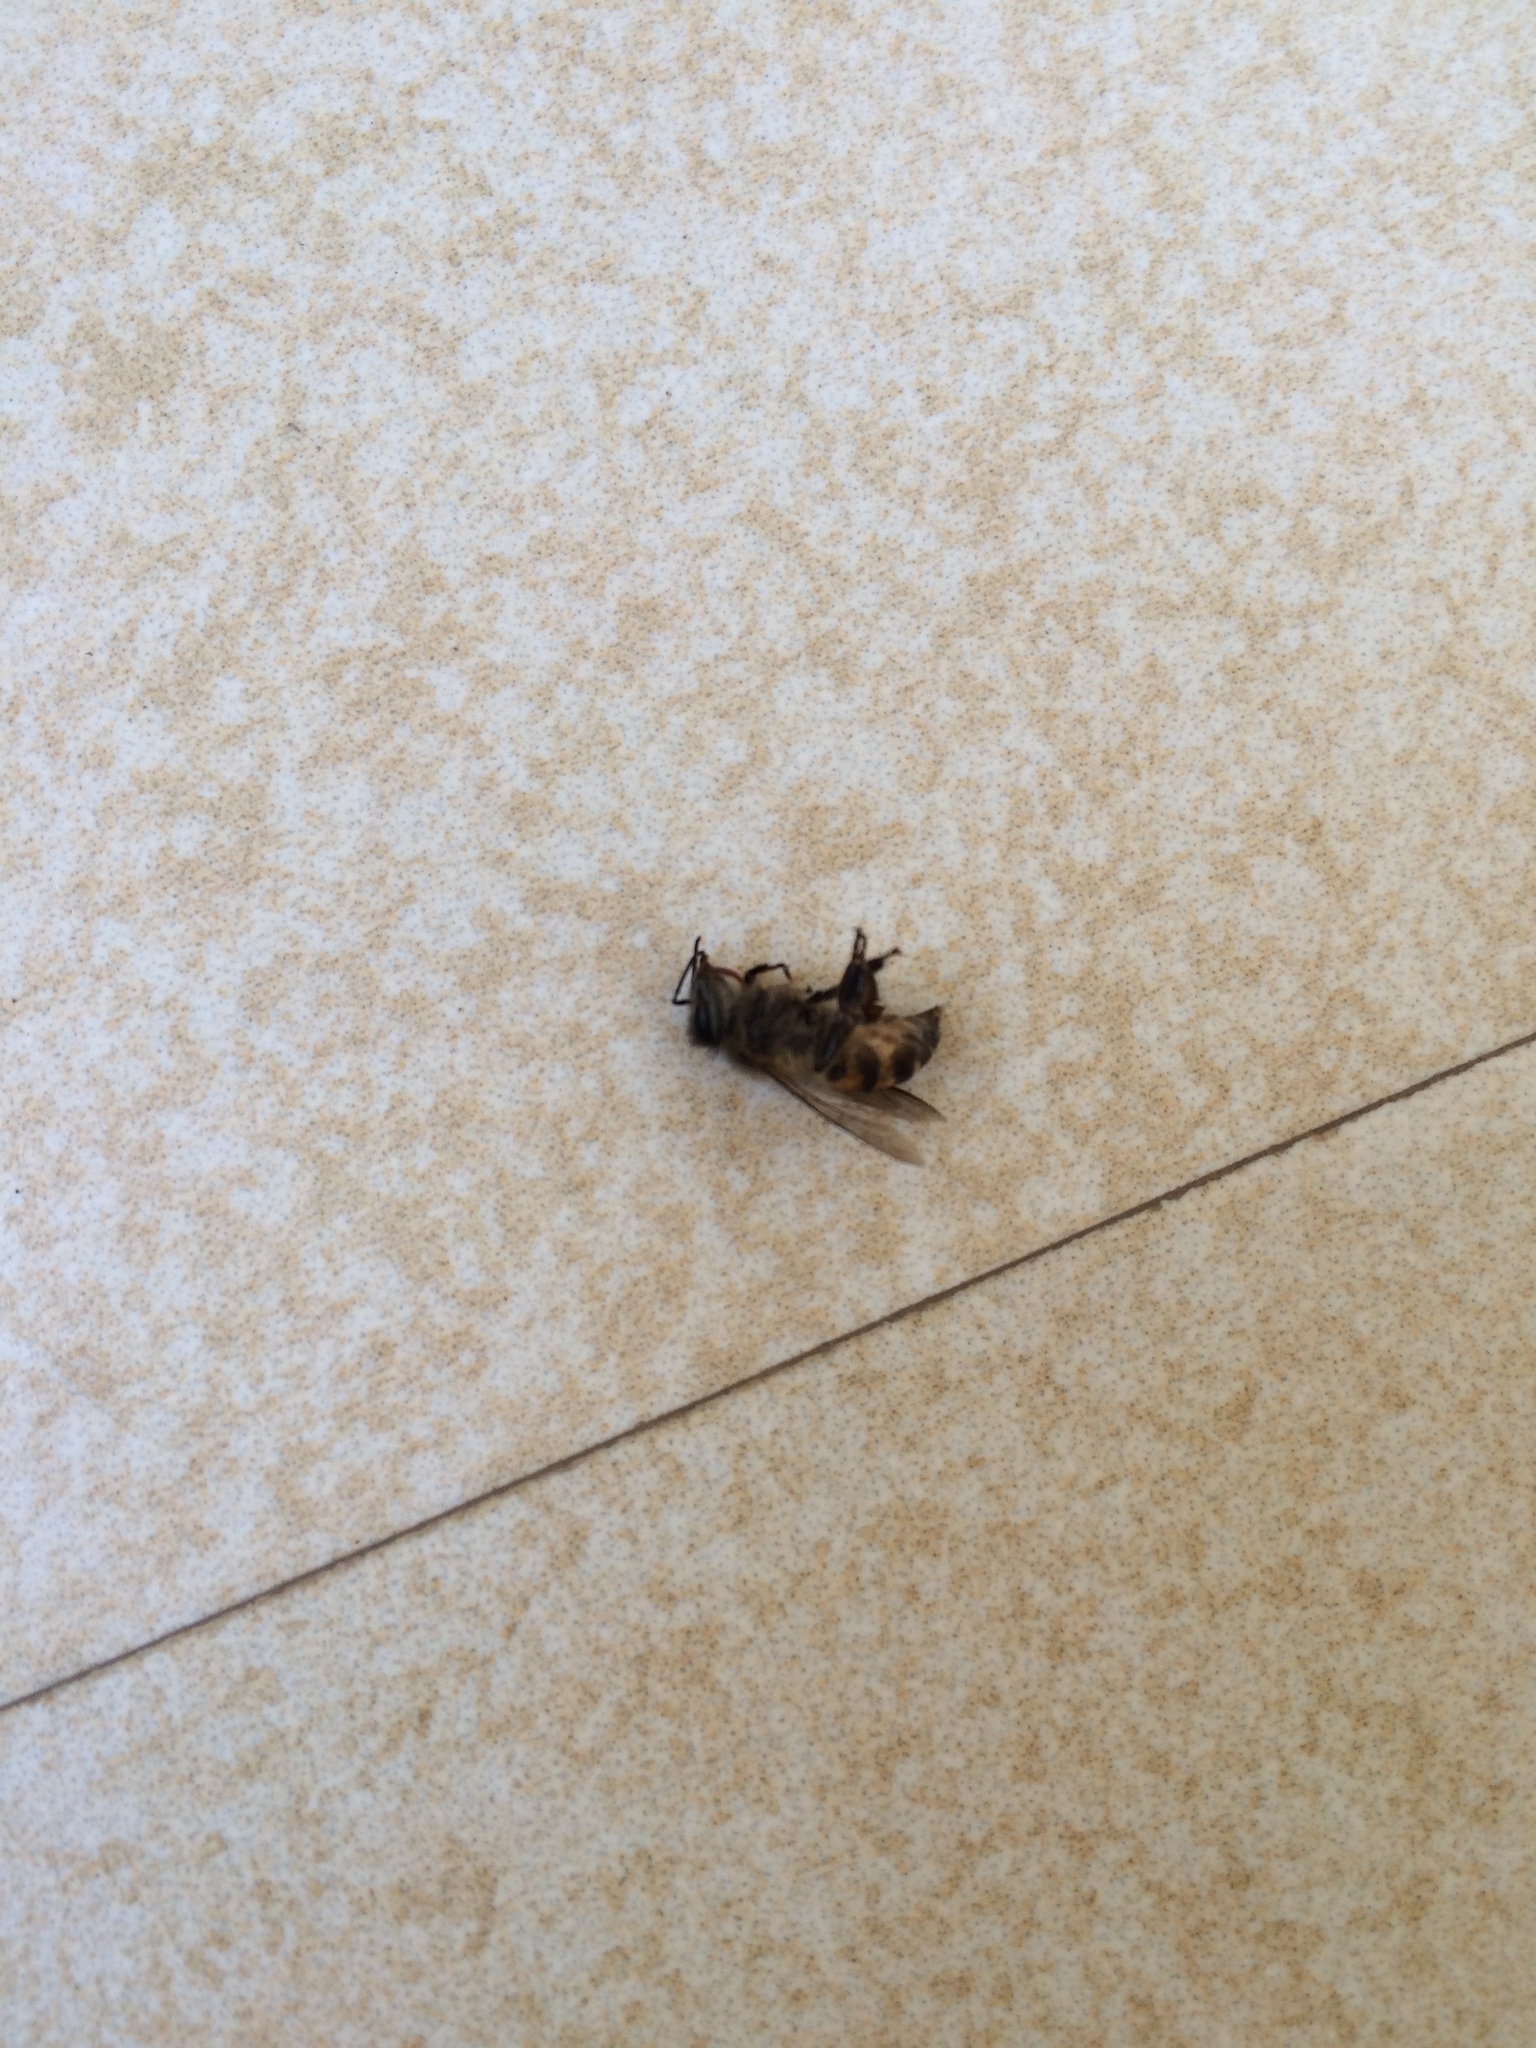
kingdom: Animalia
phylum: Arthropoda
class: Insecta
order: Hymenoptera
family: Apidae
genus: Apis
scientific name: Apis cerana
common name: Honey bee
